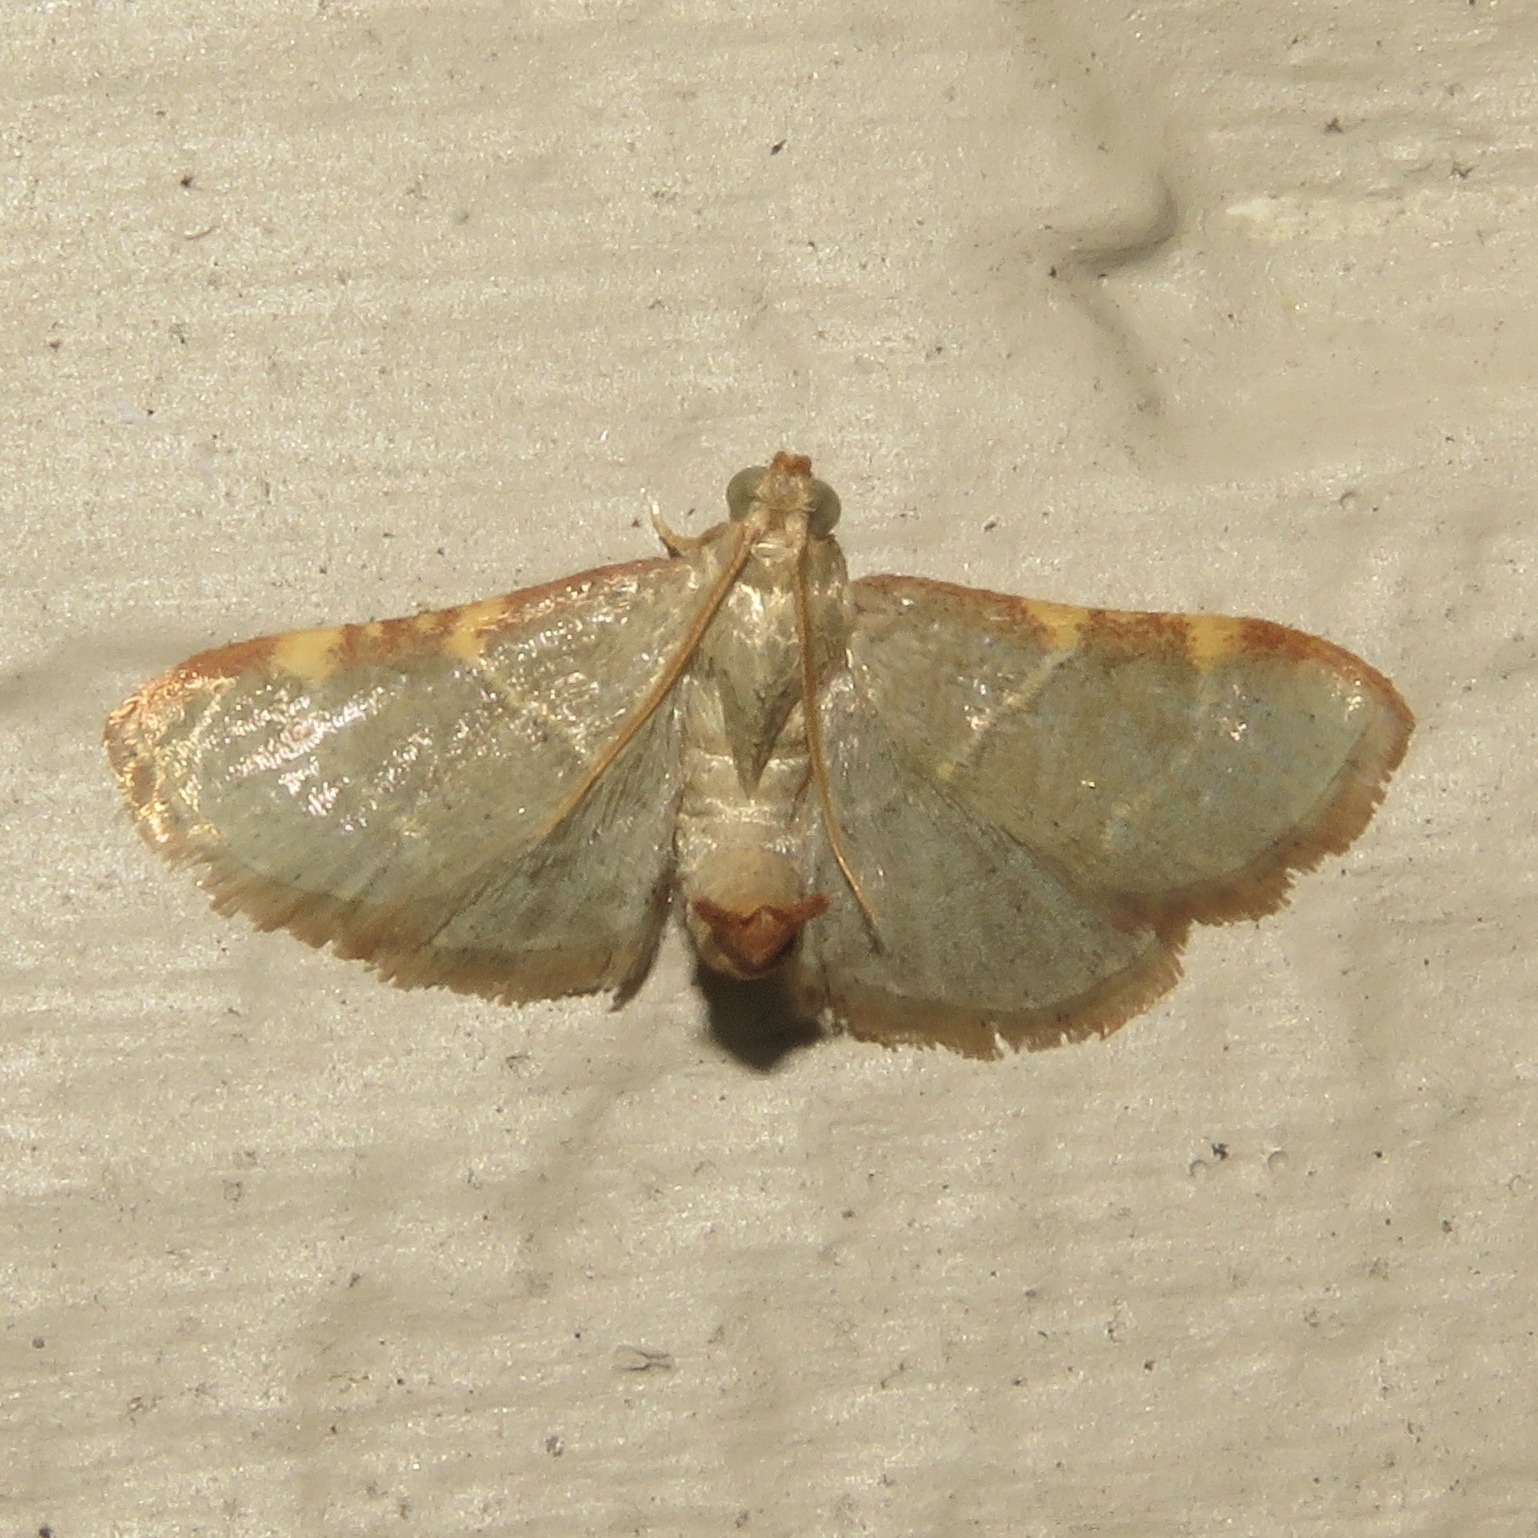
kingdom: Animalia
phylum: Arthropoda
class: Insecta
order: Lepidoptera
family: Pyralidae
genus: Hypsopygia
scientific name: Hypsopygia binodulalis
